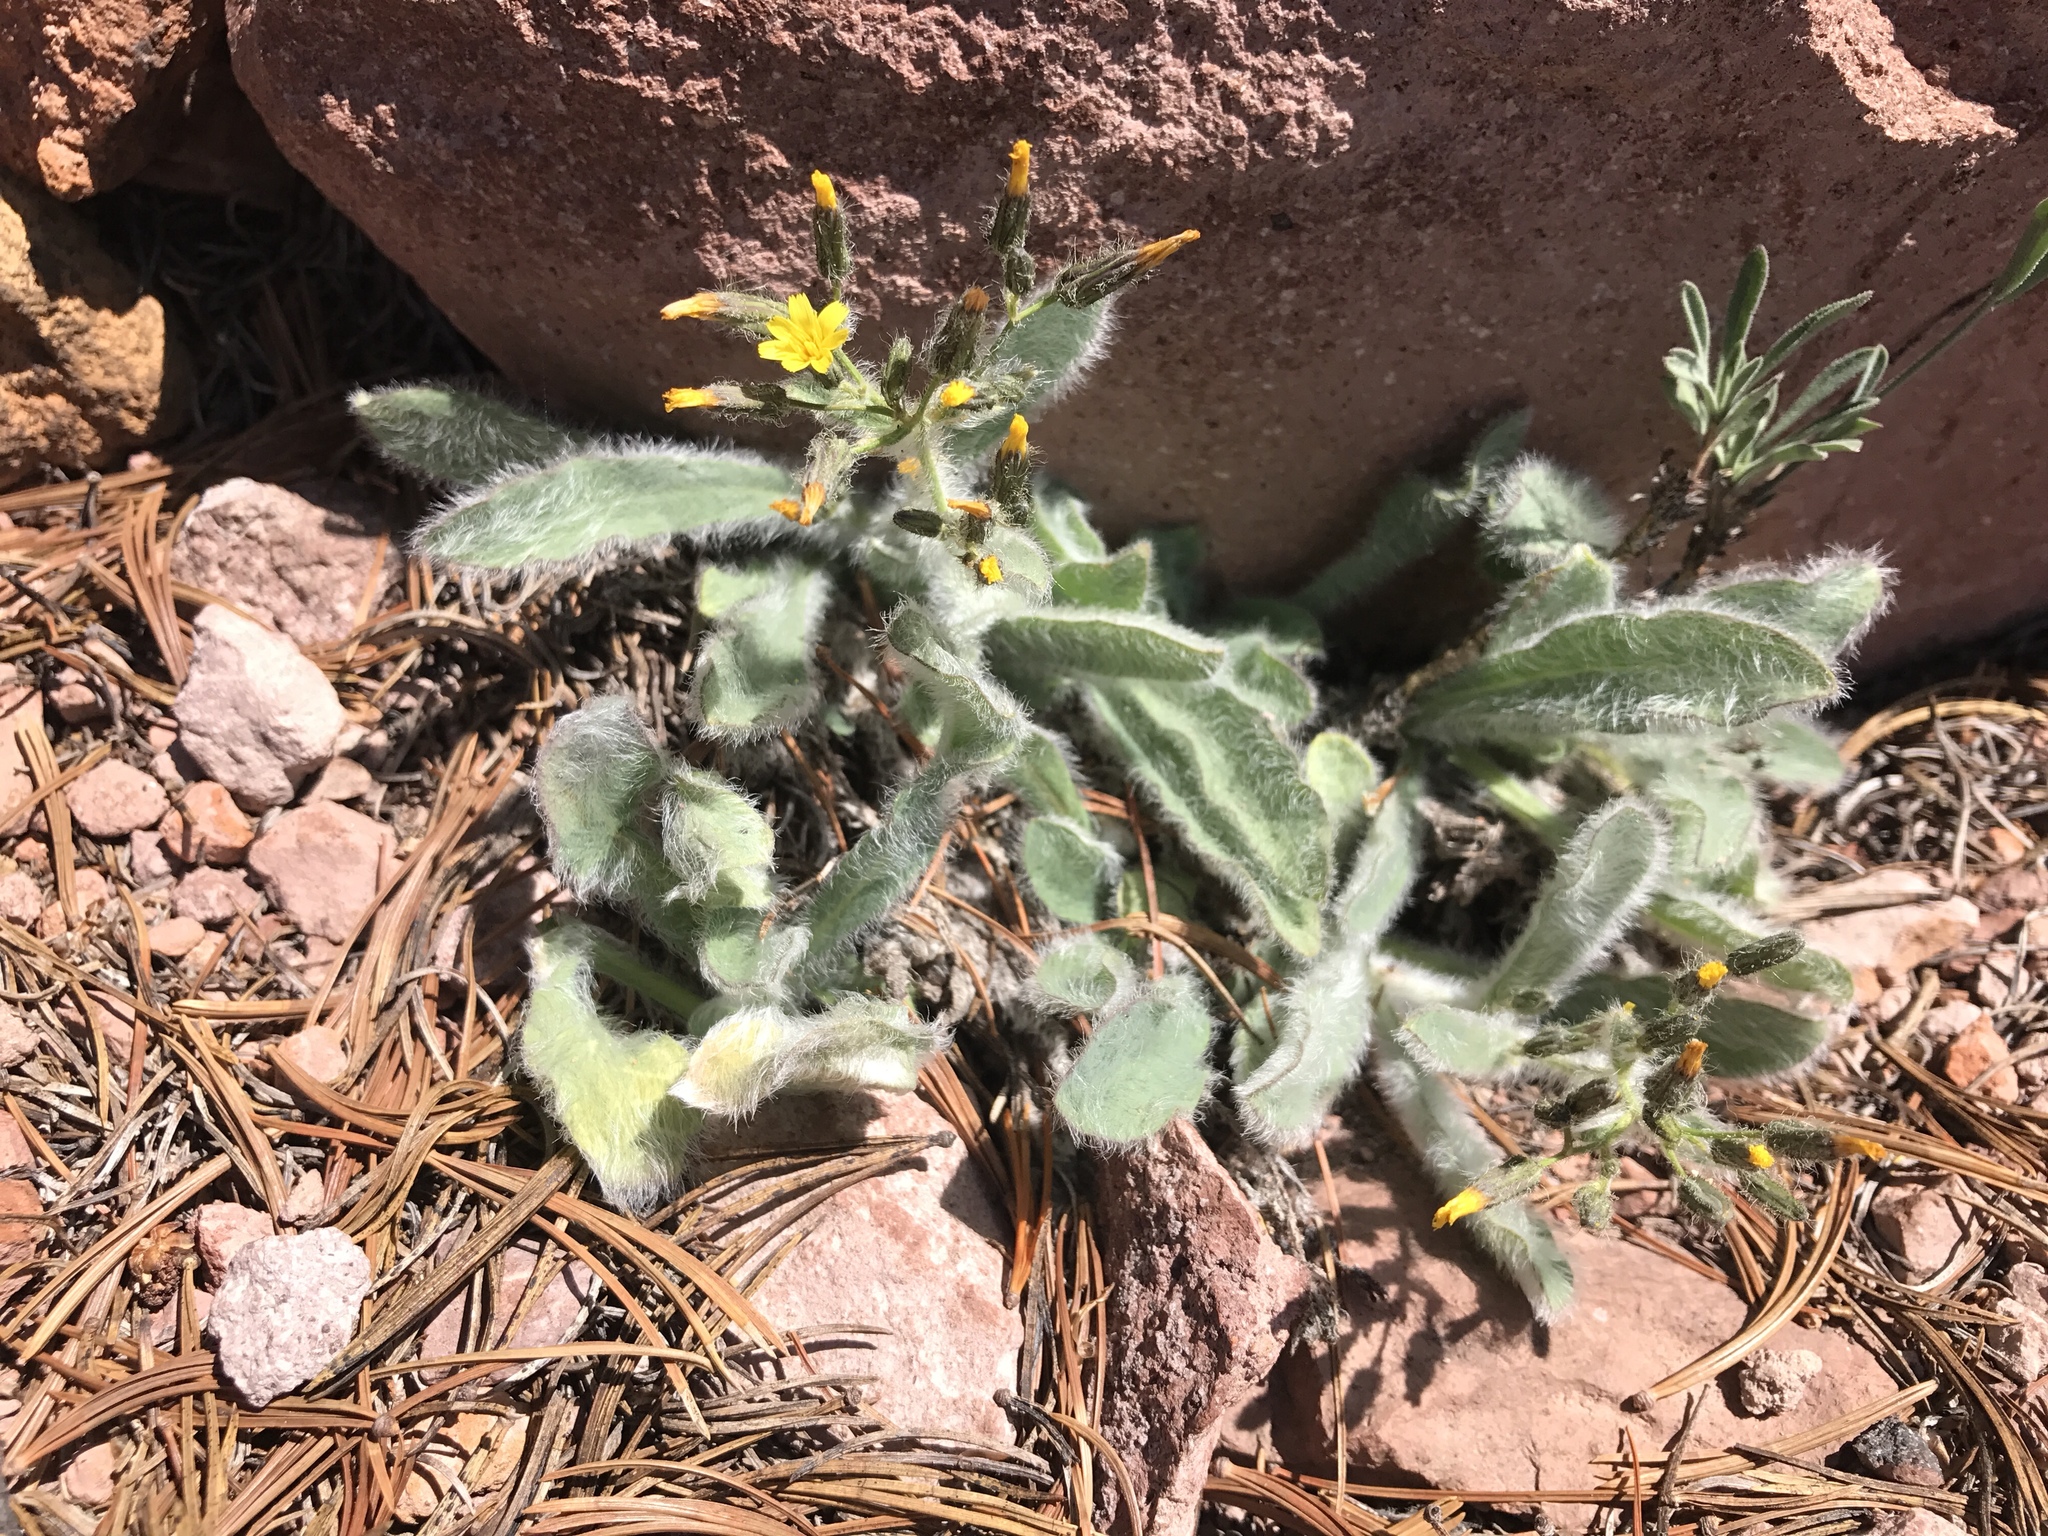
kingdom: Plantae
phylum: Tracheophyta
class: Magnoliopsida
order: Asterales
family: Asteraceae
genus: Hieracium
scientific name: Hieracium horridum
